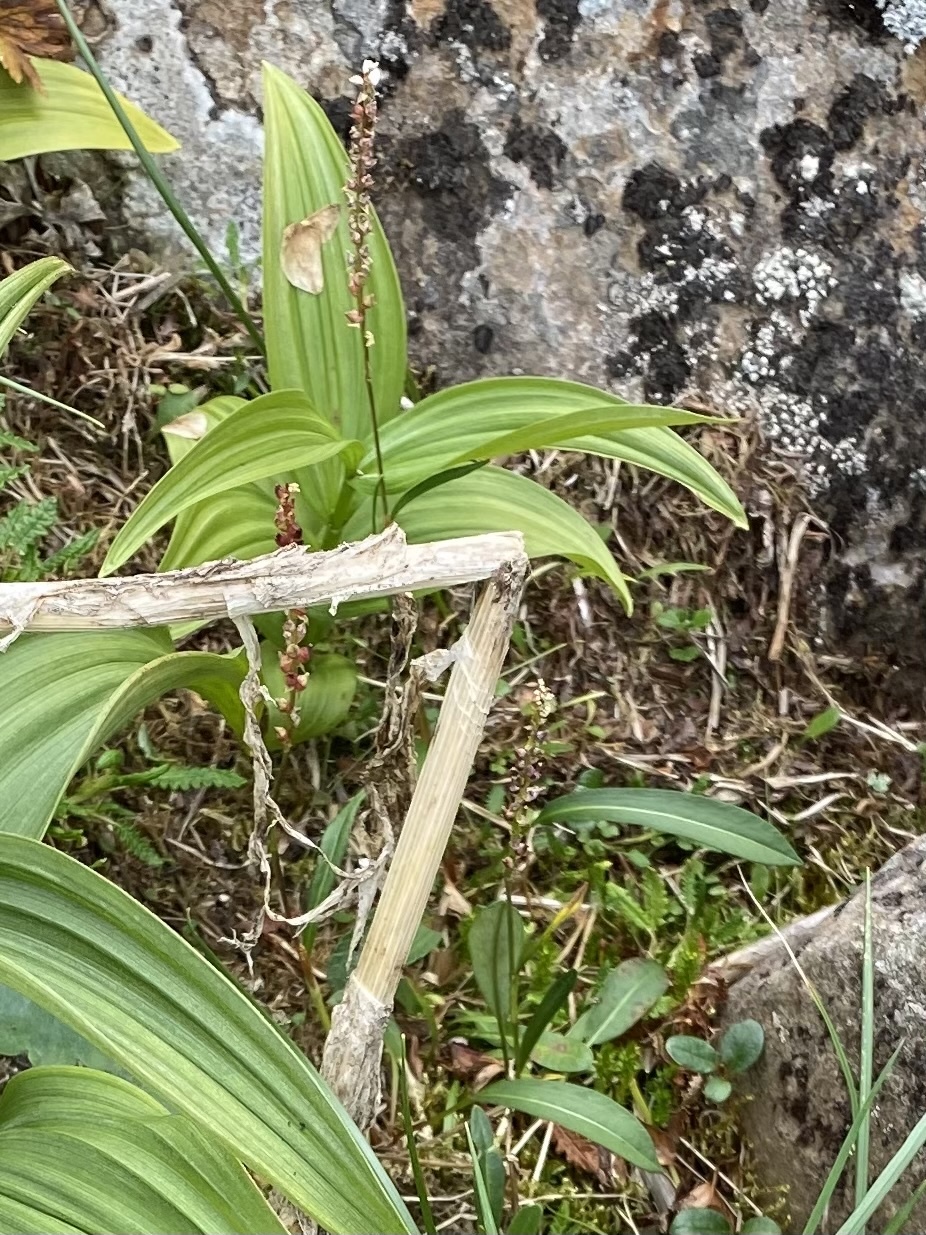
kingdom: Plantae
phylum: Tracheophyta
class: Magnoliopsida
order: Caryophyllales
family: Polygonaceae
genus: Bistorta
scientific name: Bistorta vivipara
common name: Alpine bistort
